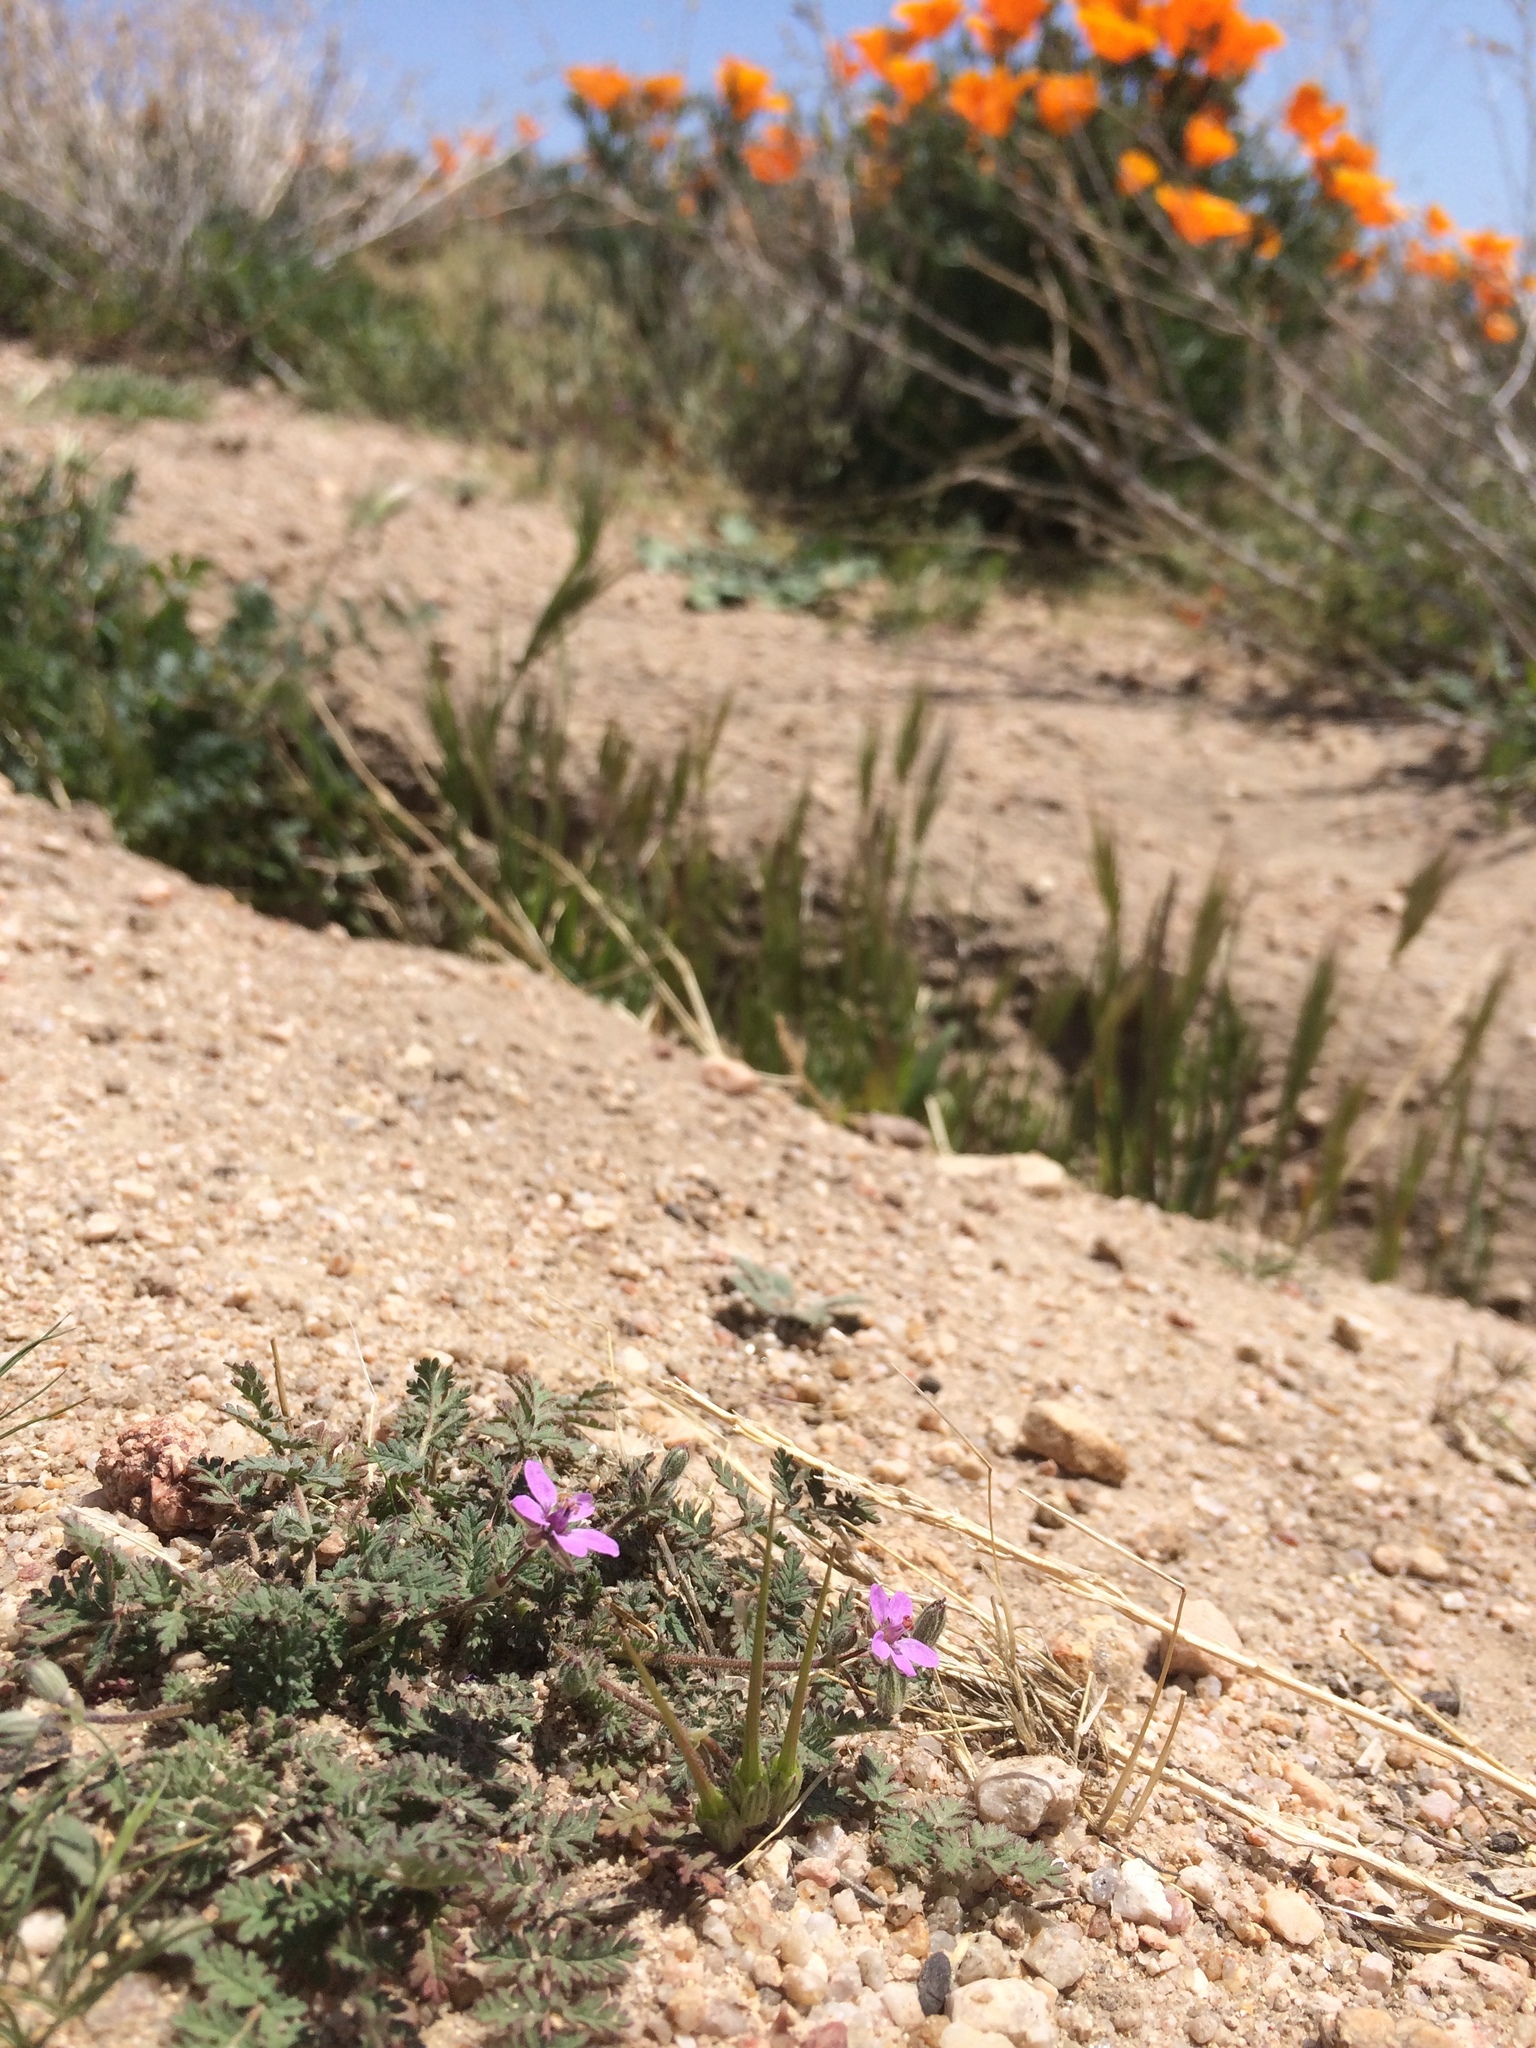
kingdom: Plantae
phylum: Tracheophyta
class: Magnoliopsida
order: Geraniales
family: Geraniaceae
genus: Erodium
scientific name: Erodium cicutarium
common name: Common stork's-bill
